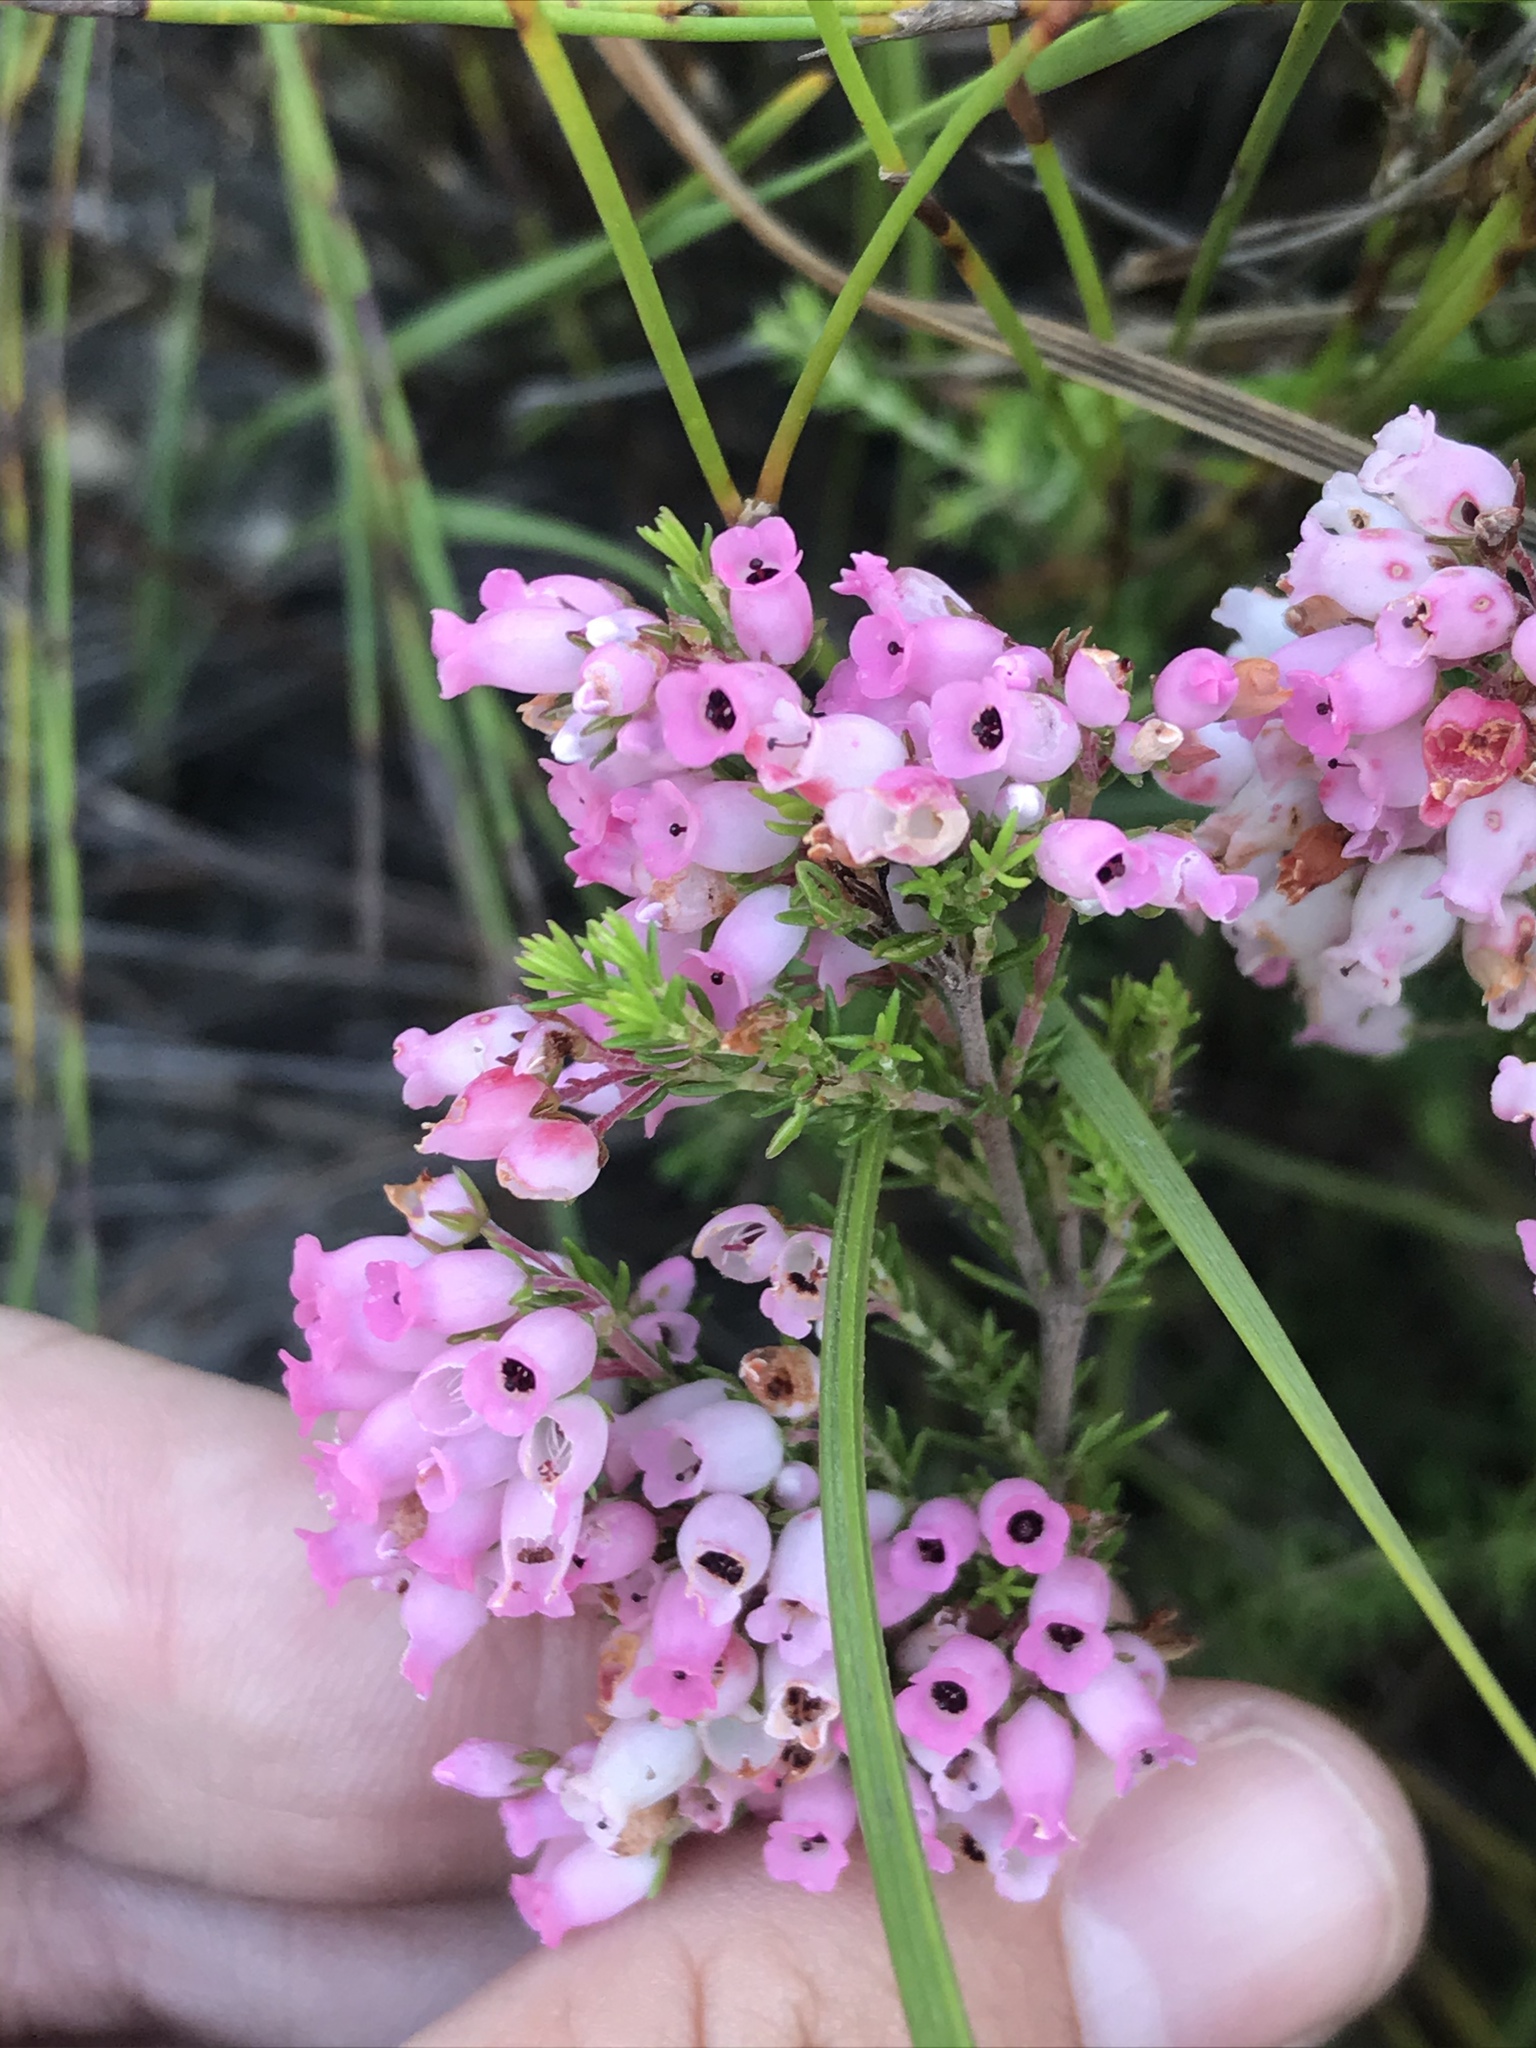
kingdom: Plantae
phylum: Tracheophyta
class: Magnoliopsida
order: Ericales
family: Ericaceae
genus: Erica
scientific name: Erica tenella
